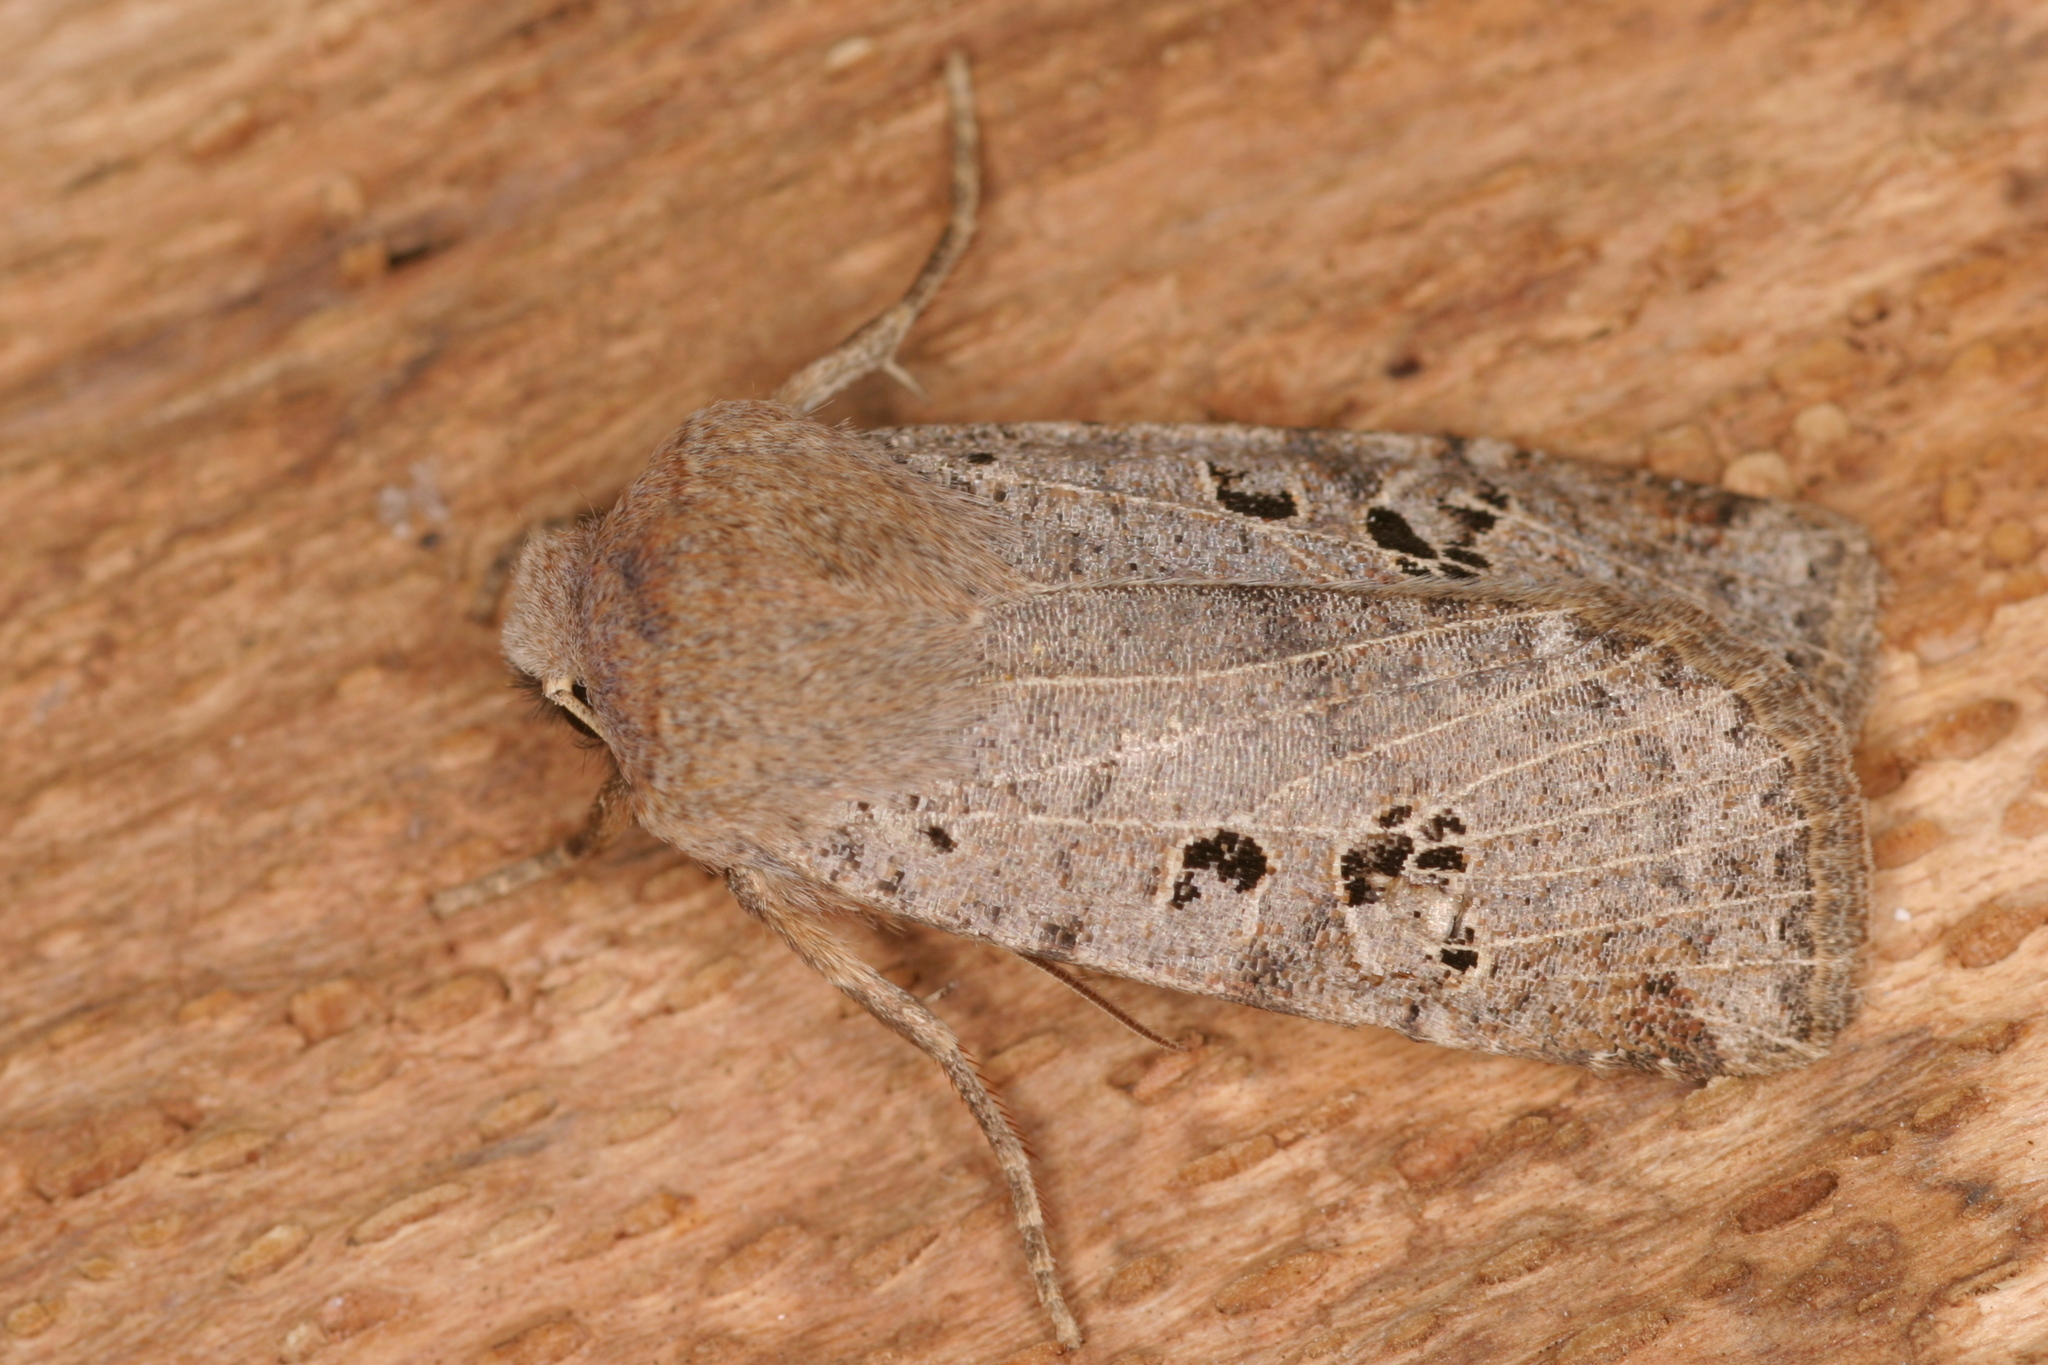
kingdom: Animalia
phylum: Arthropoda
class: Insecta
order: Lepidoptera
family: Noctuidae
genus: Conistra
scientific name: Conistra rubiginosa
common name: Black-spotted chestnut
